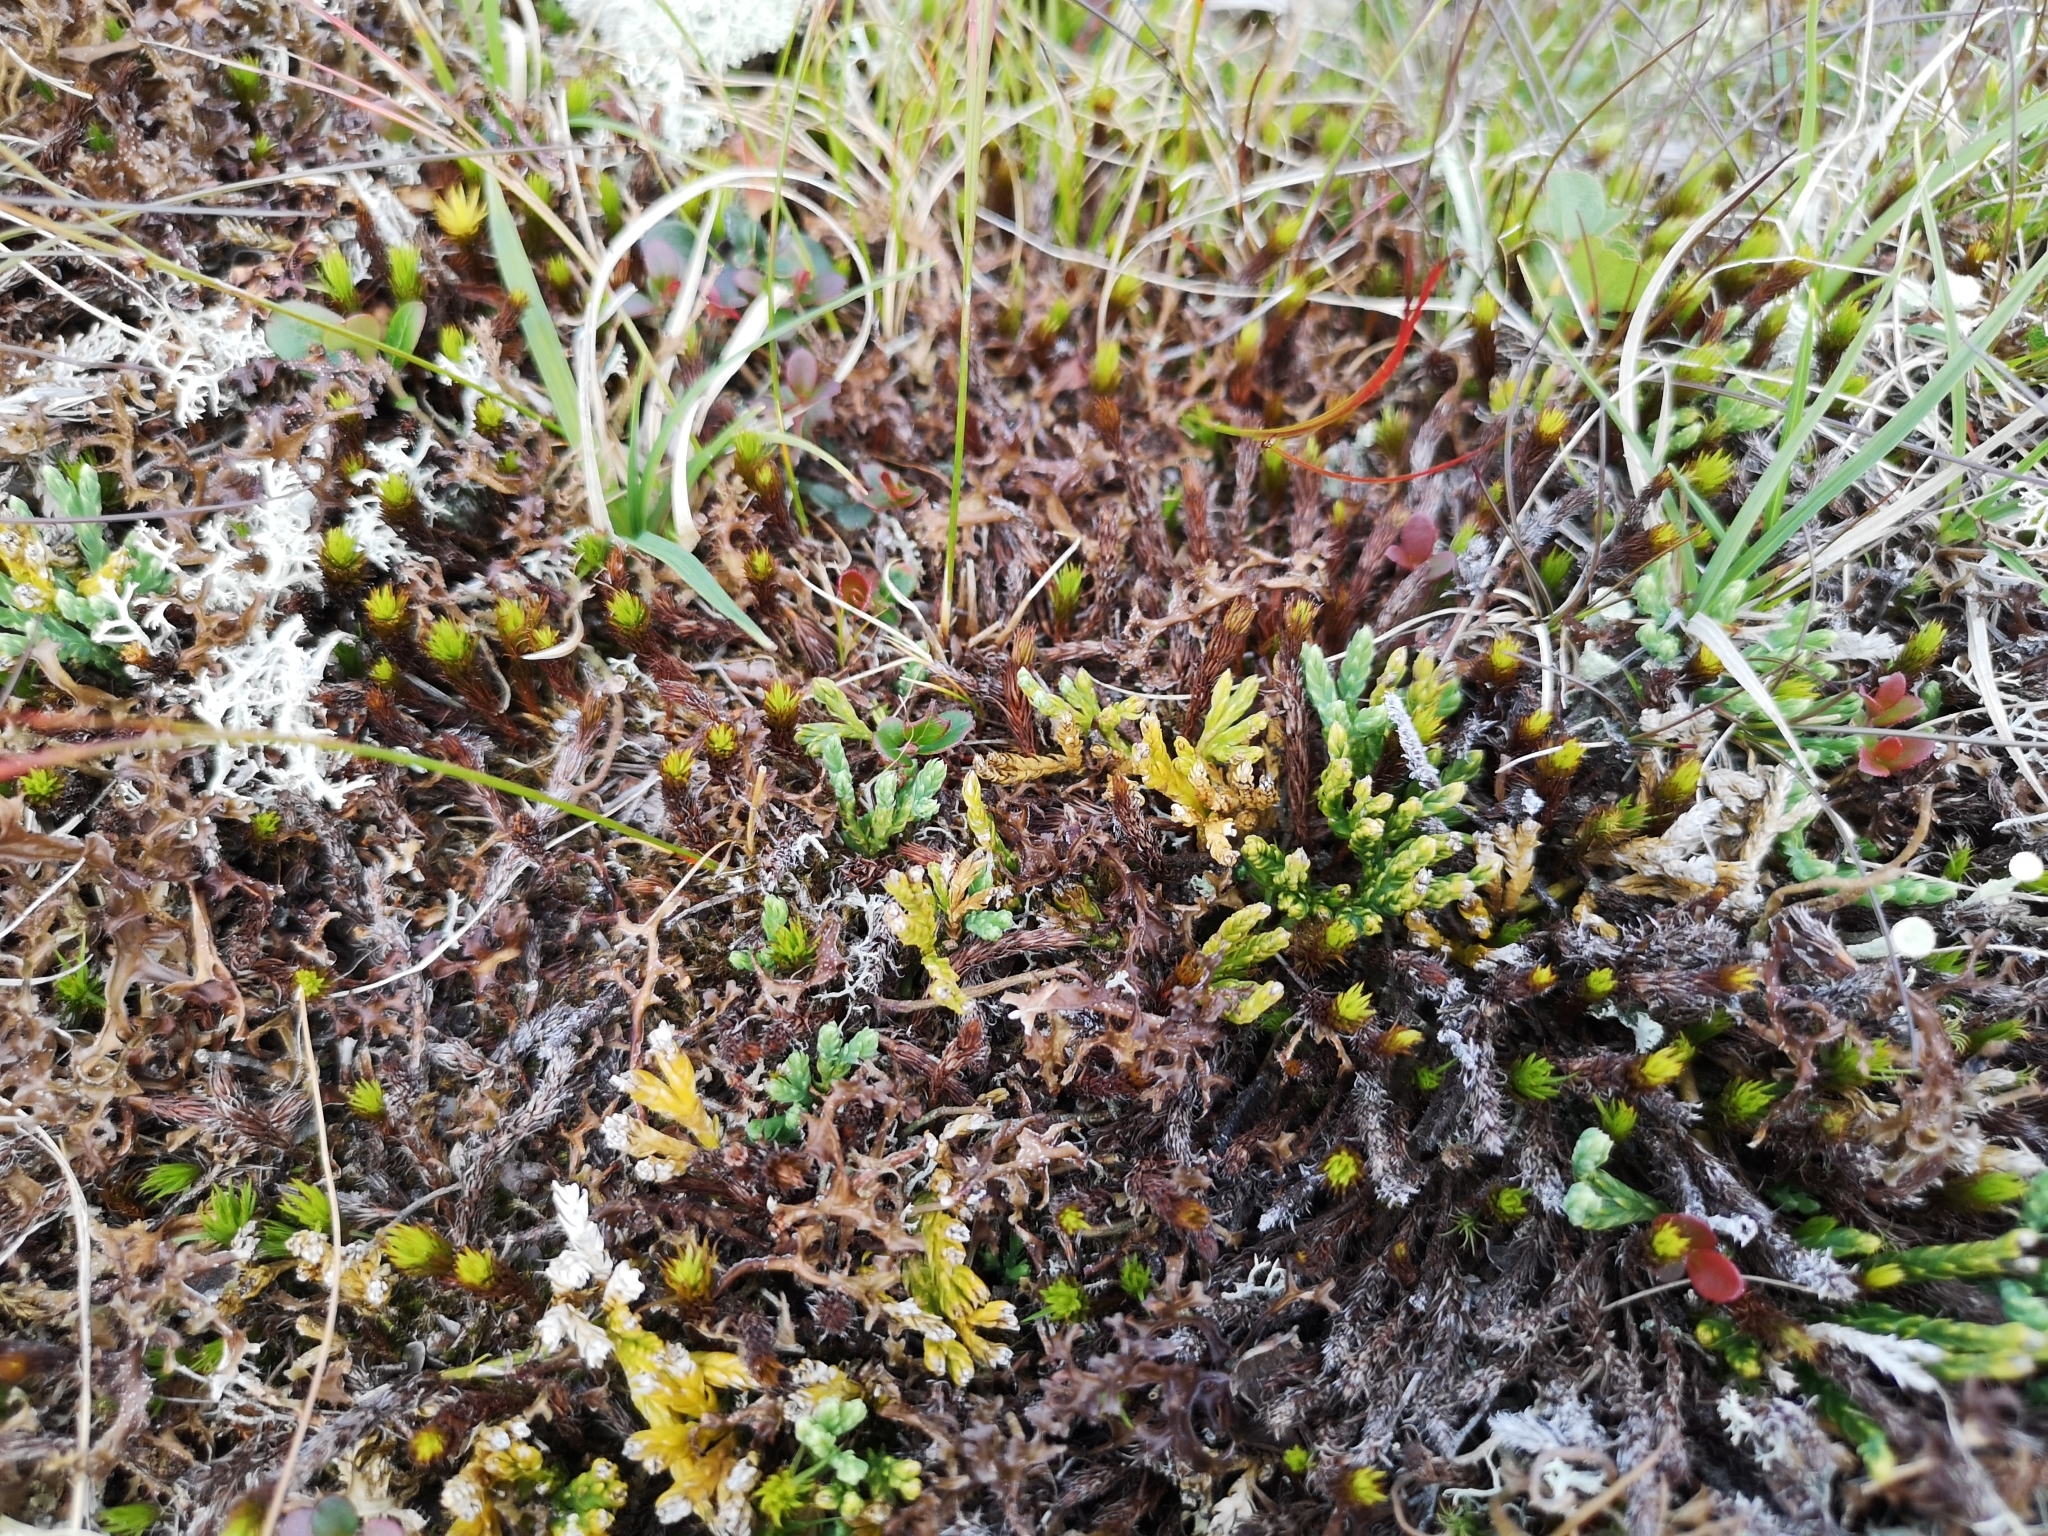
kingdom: Plantae
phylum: Tracheophyta
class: Lycopodiopsida
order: Lycopodiales
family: Lycopodiaceae
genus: Diphasiastrum
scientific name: Diphasiastrum alpinum
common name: Alpine clubmoss
